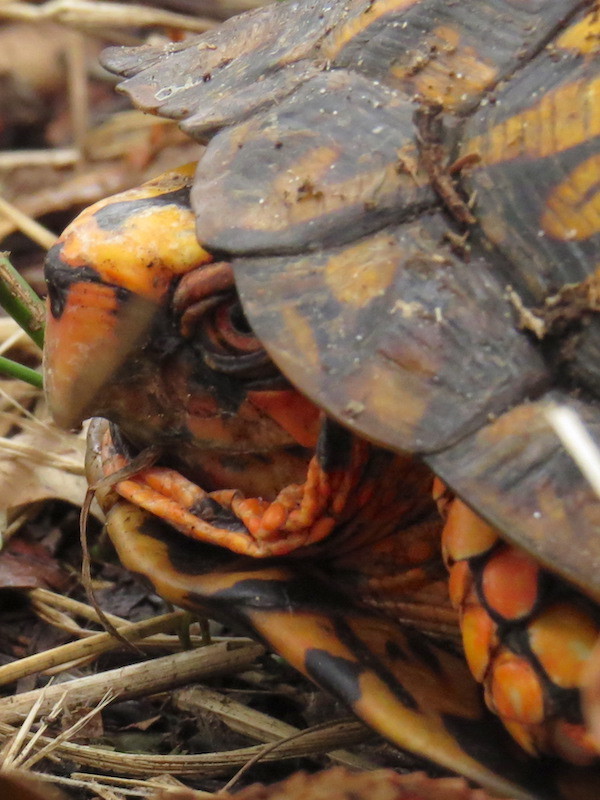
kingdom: Animalia
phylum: Chordata
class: Testudines
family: Emydidae
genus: Terrapene
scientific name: Terrapene carolina
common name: Common box turtle
